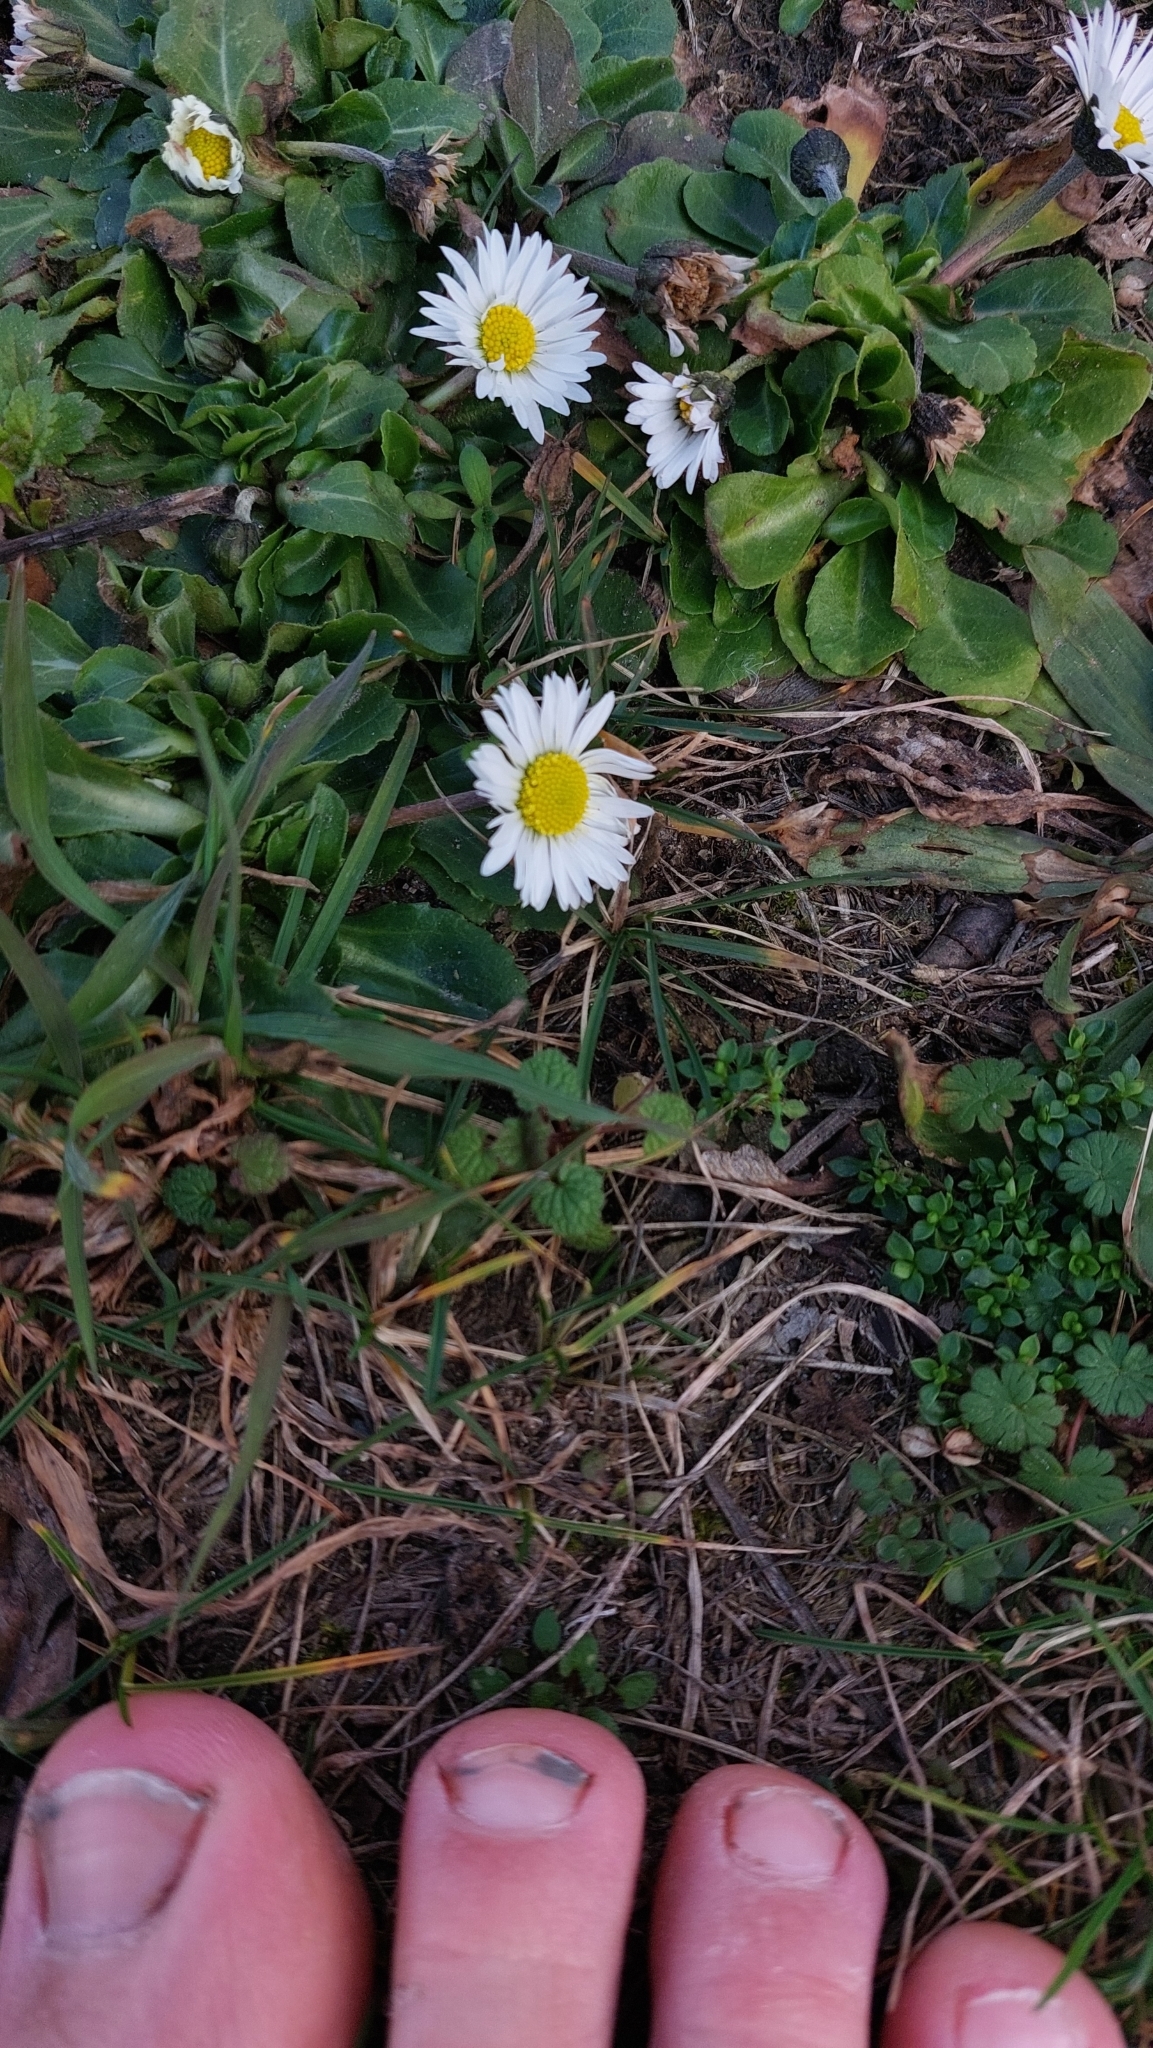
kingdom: Plantae
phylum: Tracheophyta
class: Magnoliopsida
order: Asterales
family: Asteraceae
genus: Bellis
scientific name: Bellis perennis
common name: Lawndaisy
